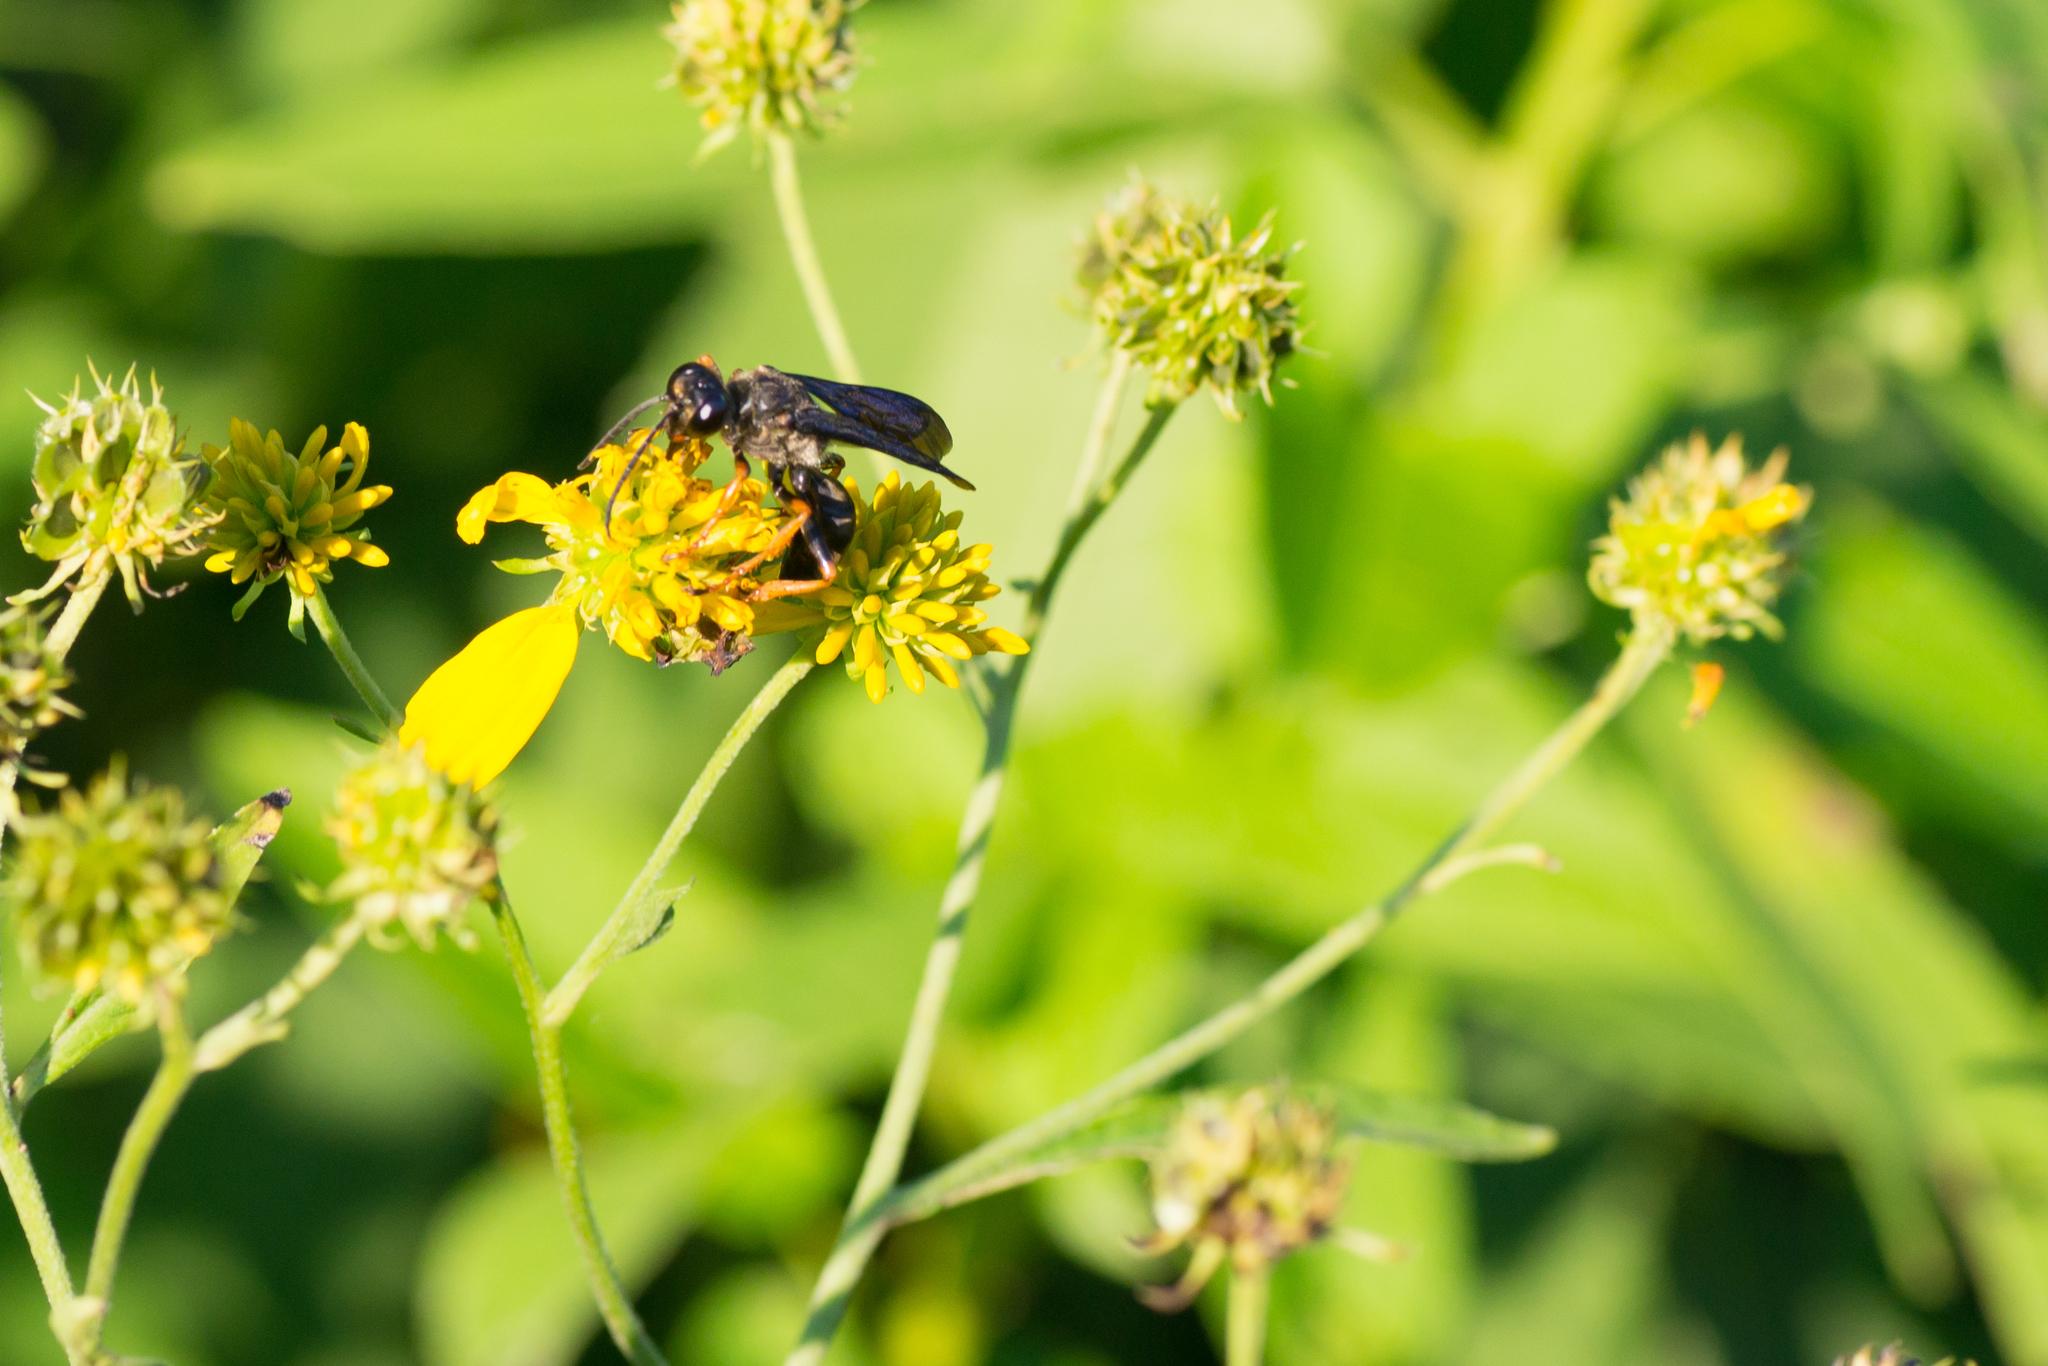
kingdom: Animalia
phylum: Arthropoda
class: Insecta
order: Hymenoptera
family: Sphecidae
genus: Sphex
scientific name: Sphex nudus
